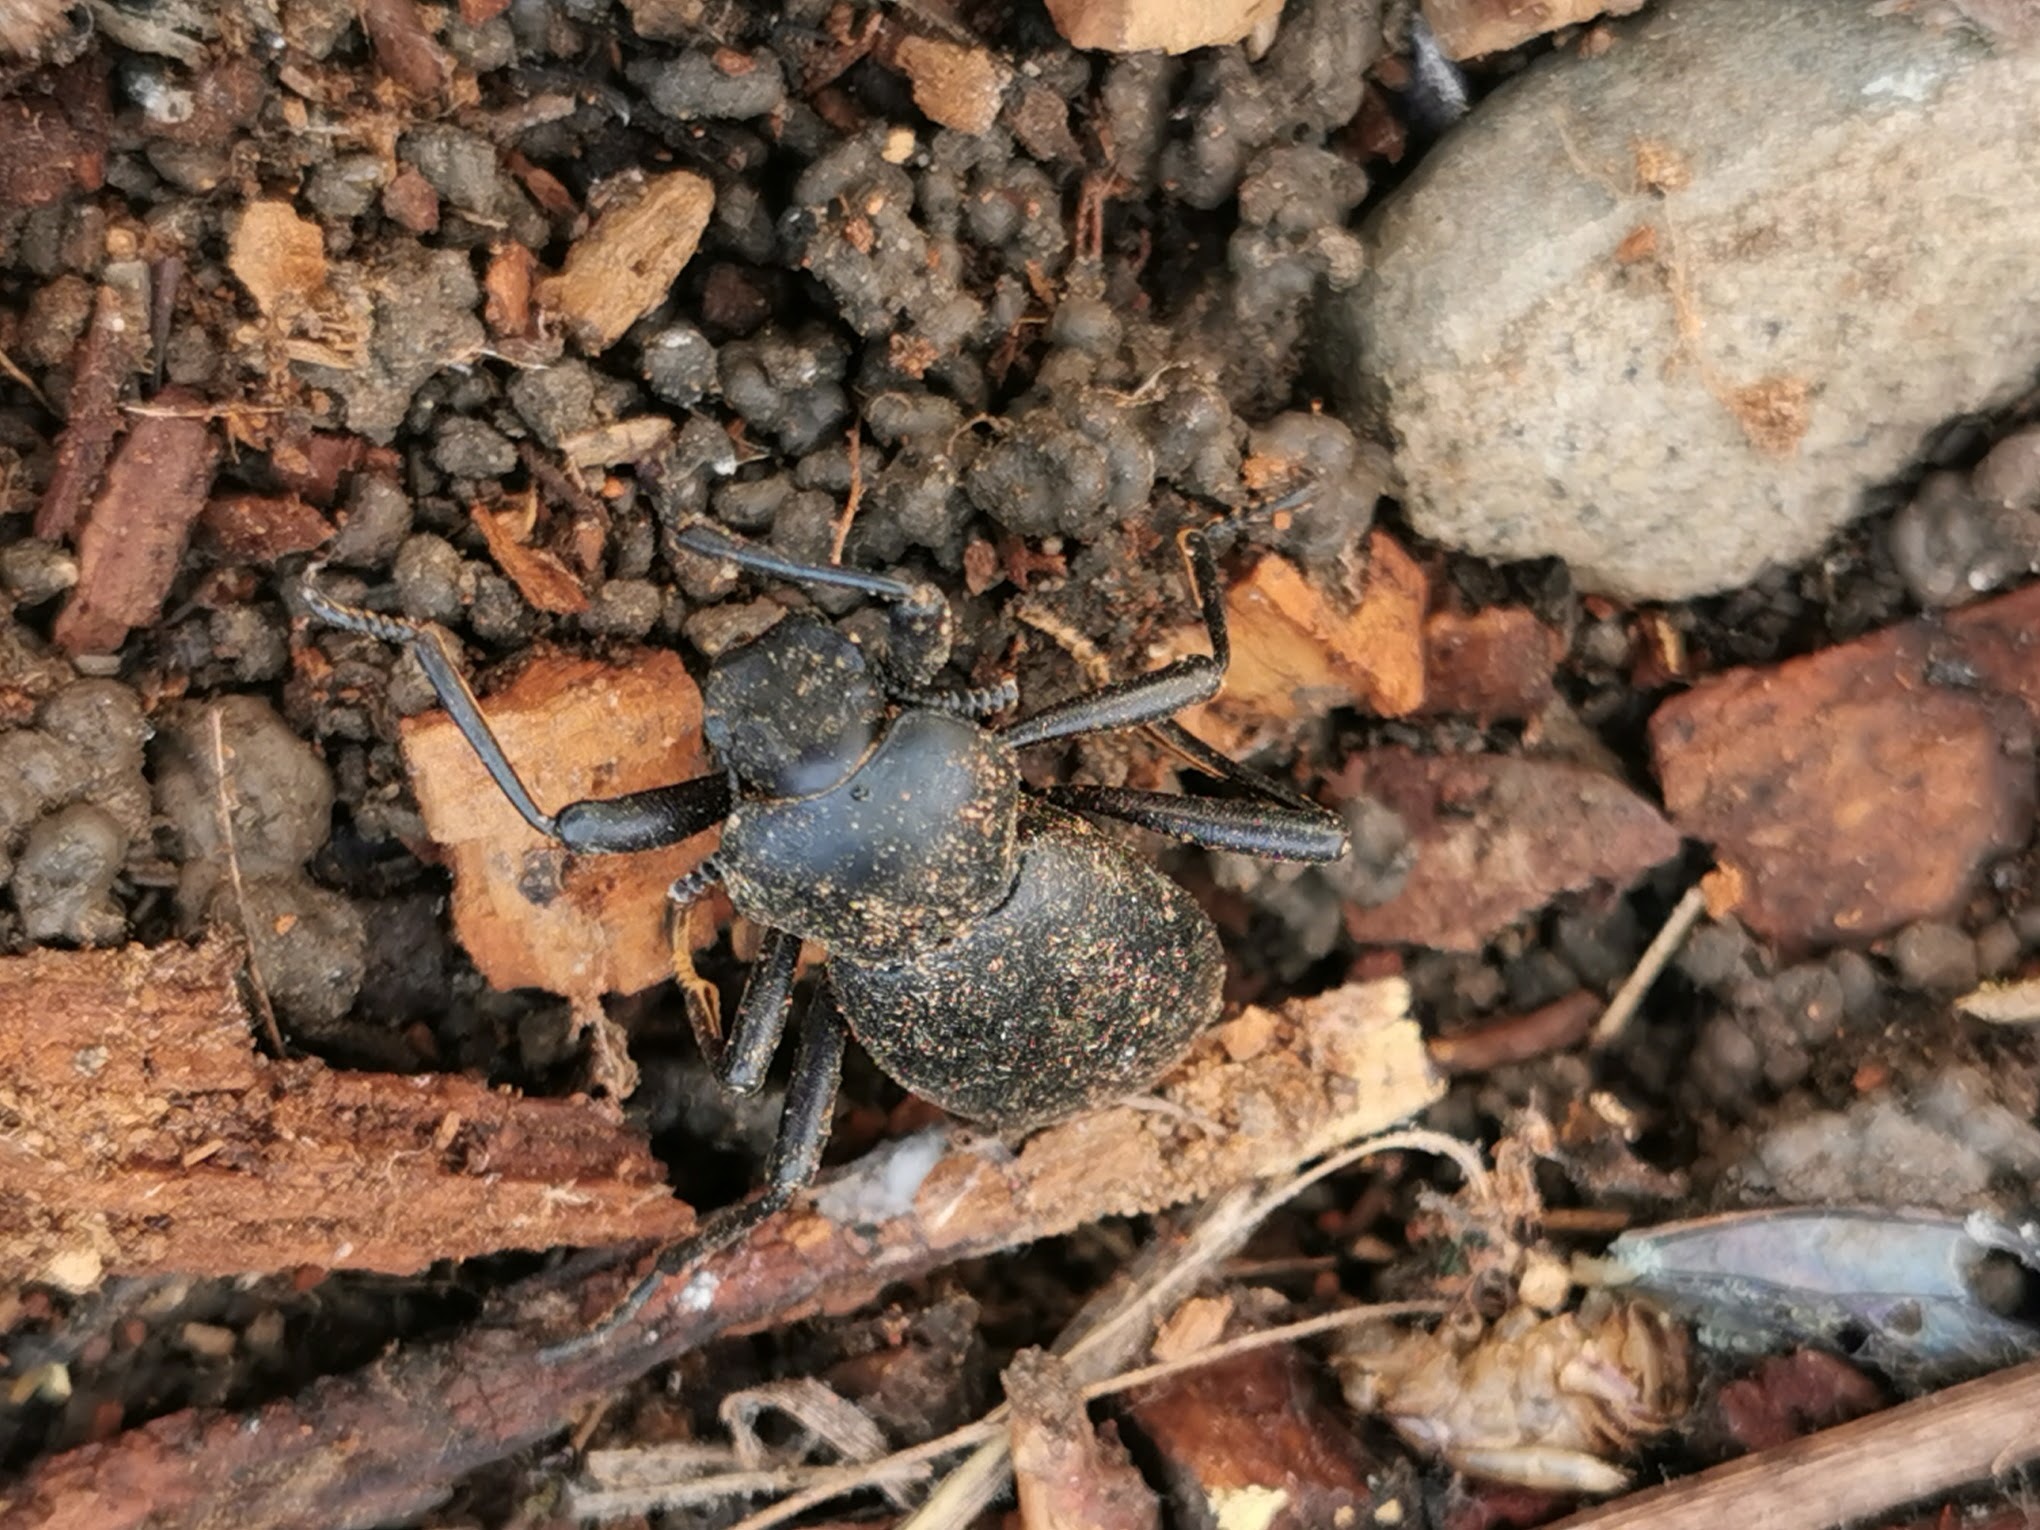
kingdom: Animalia
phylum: Arthropoda
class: Insecta
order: Coleoptera
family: Tenebrionidae
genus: Coelocnemis
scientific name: Coelocnemis dilaticollis
